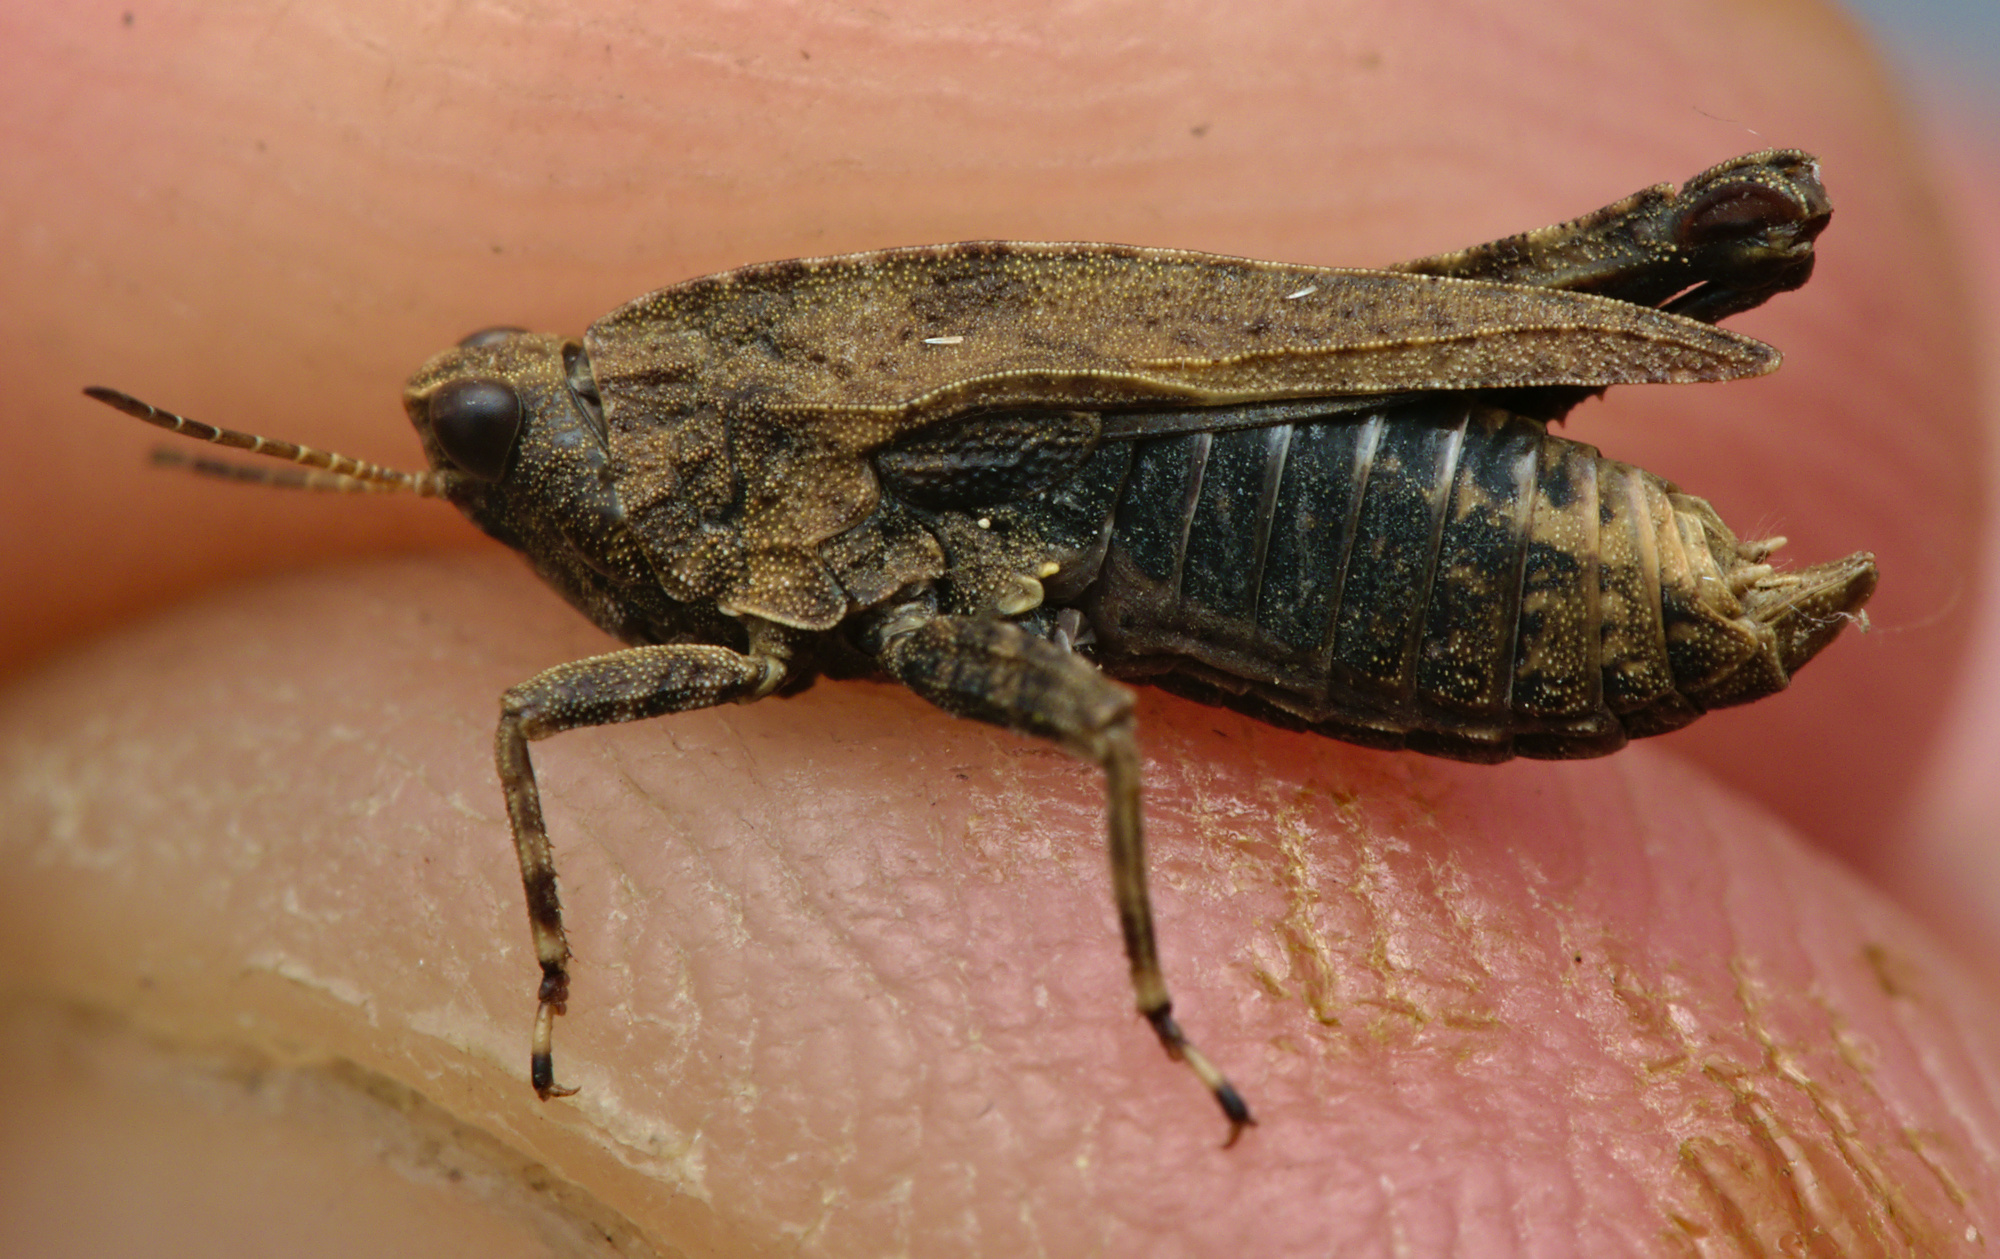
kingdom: Animalia
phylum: Arthropoda
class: Insecta
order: Orthoptera
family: Tetrigidae
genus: Tetrix
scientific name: Tetrix undulata
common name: Common groundhopper
